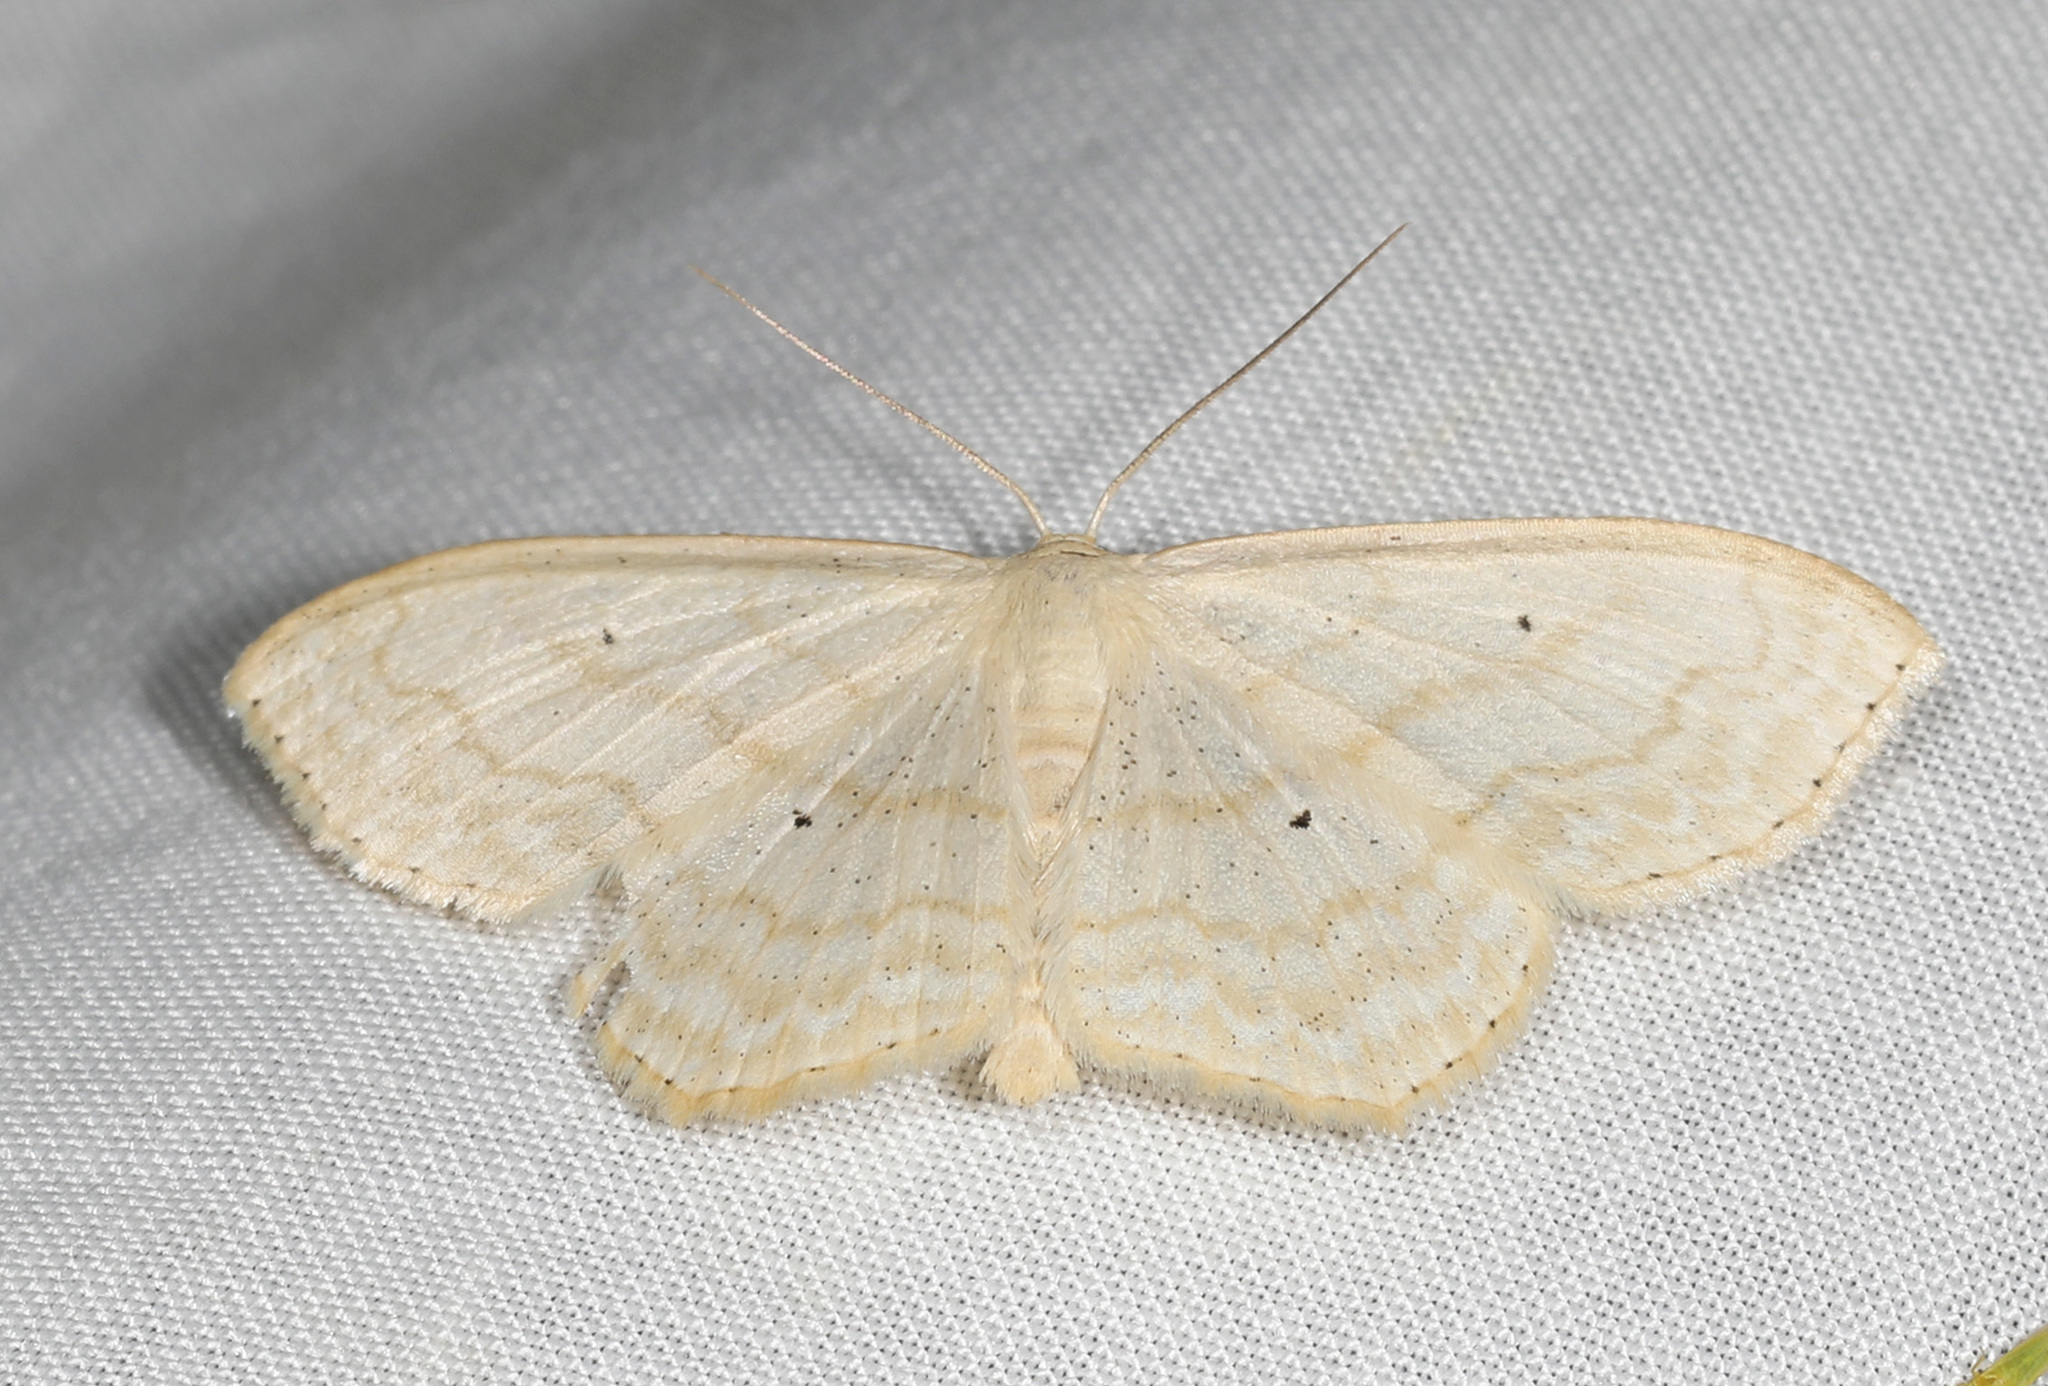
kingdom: Animalia
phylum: Arthropoda
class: Insecta
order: Lepidoptera
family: Geometridae
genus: Scopula
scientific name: Scopula inductata
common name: Soft-lined wave
